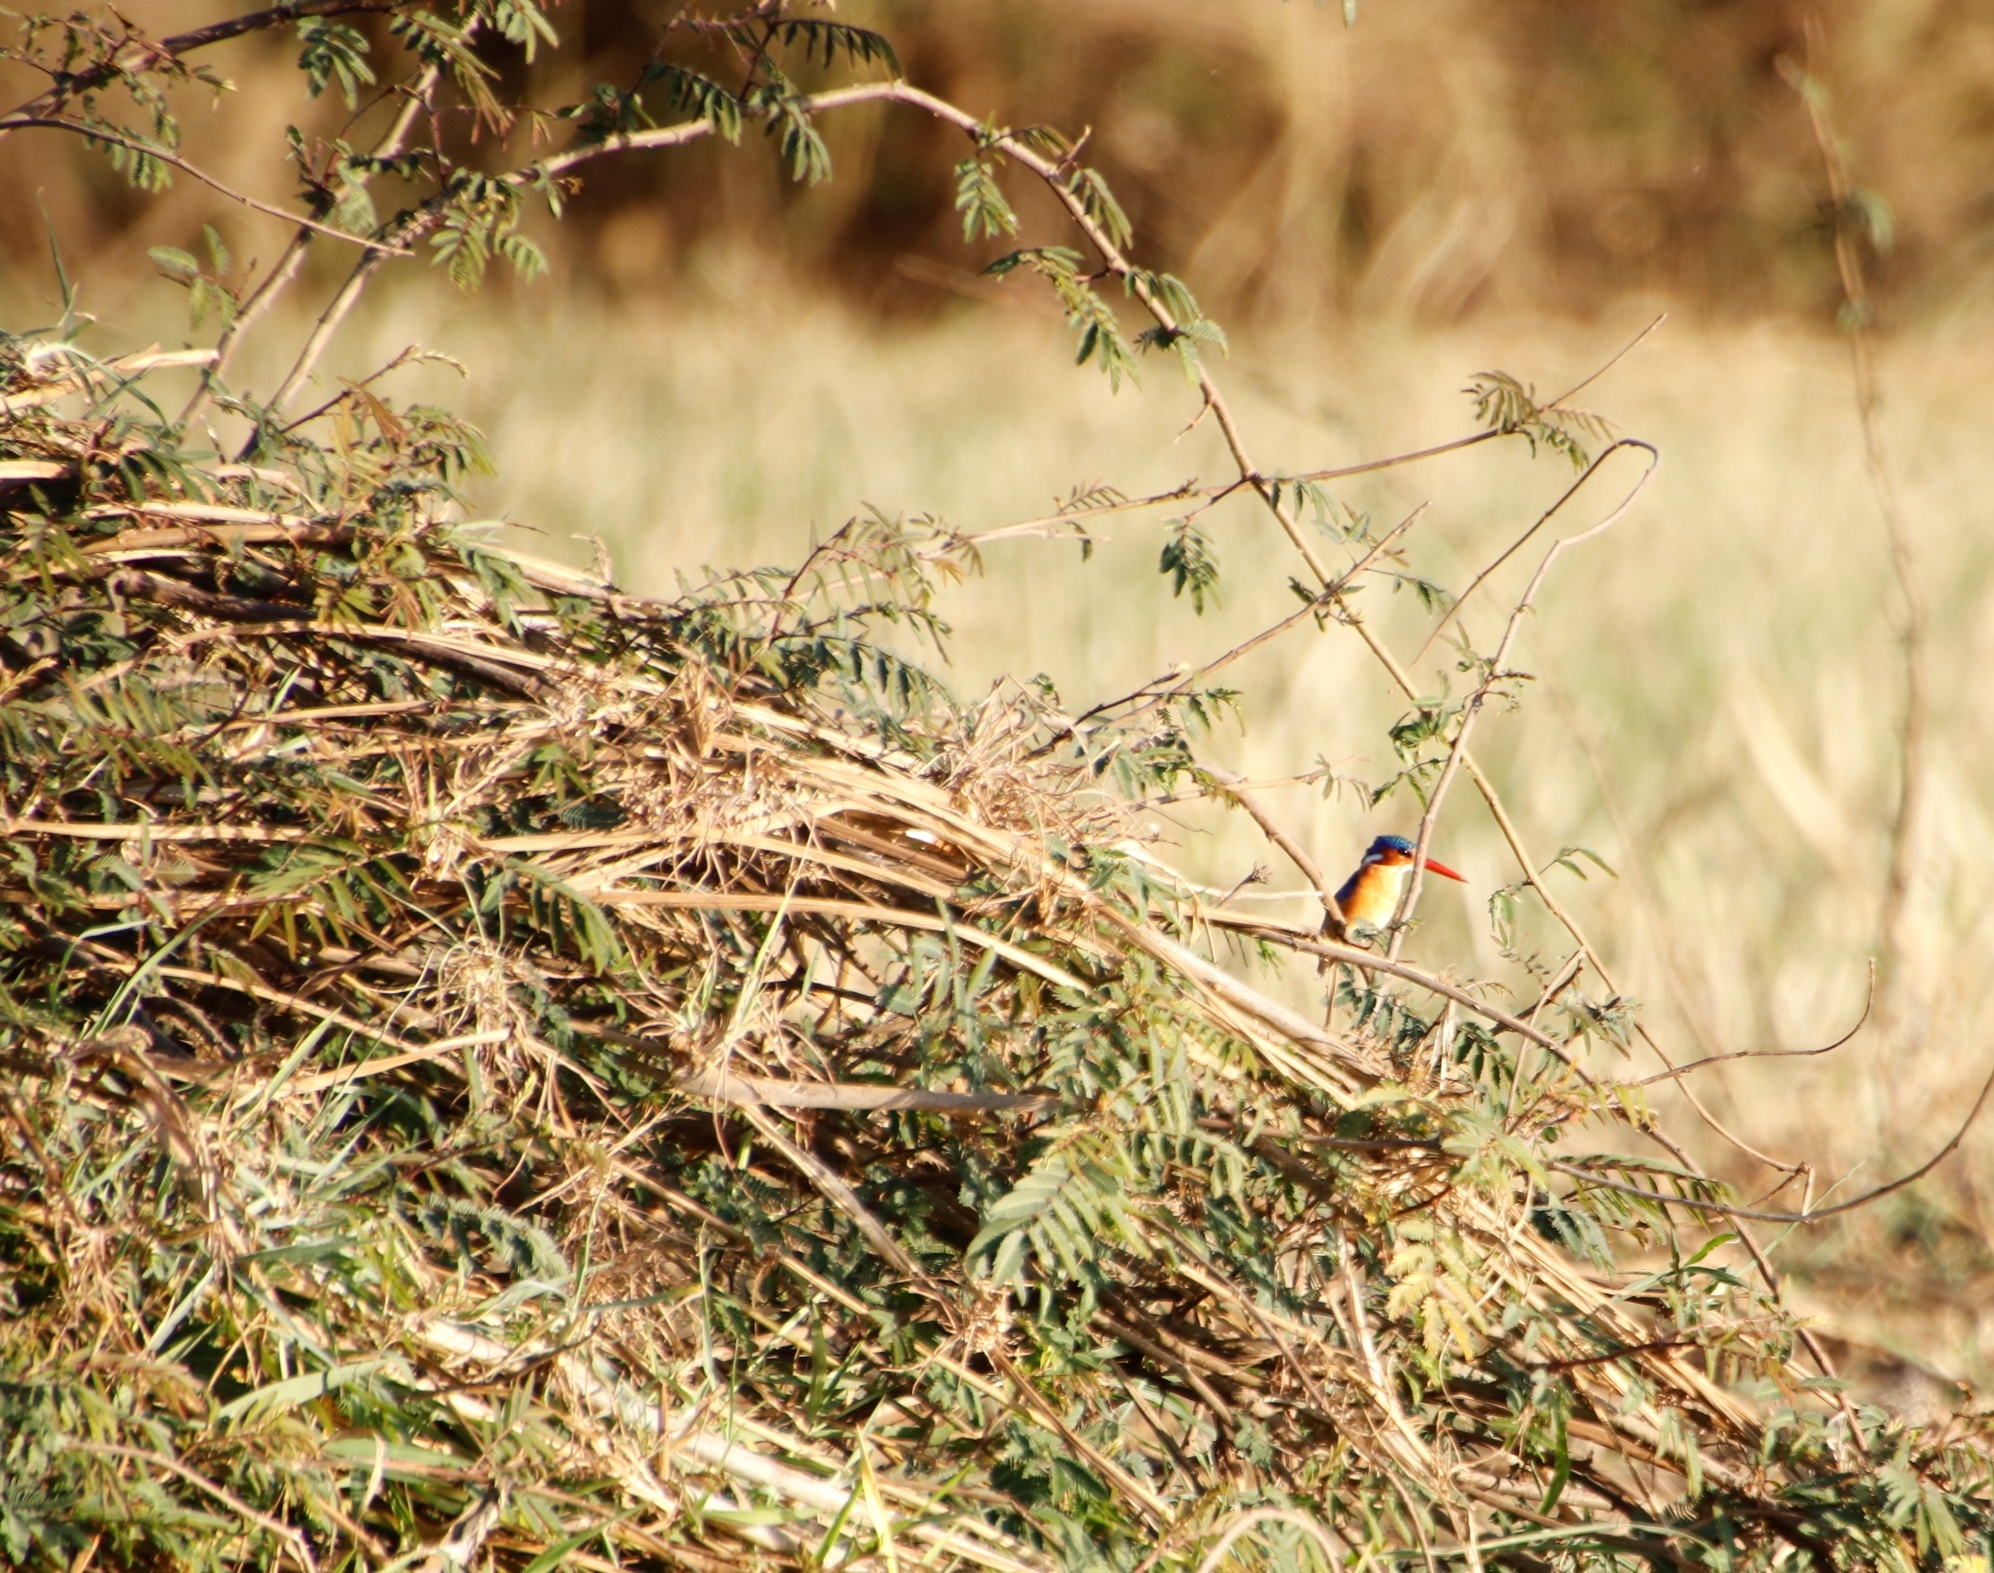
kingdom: Animalia
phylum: Chordata
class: Aves
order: Coraciiformes
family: Alcedinidae
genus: Corythornis
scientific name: Corythornis cristatus
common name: Malachite kingfisher
